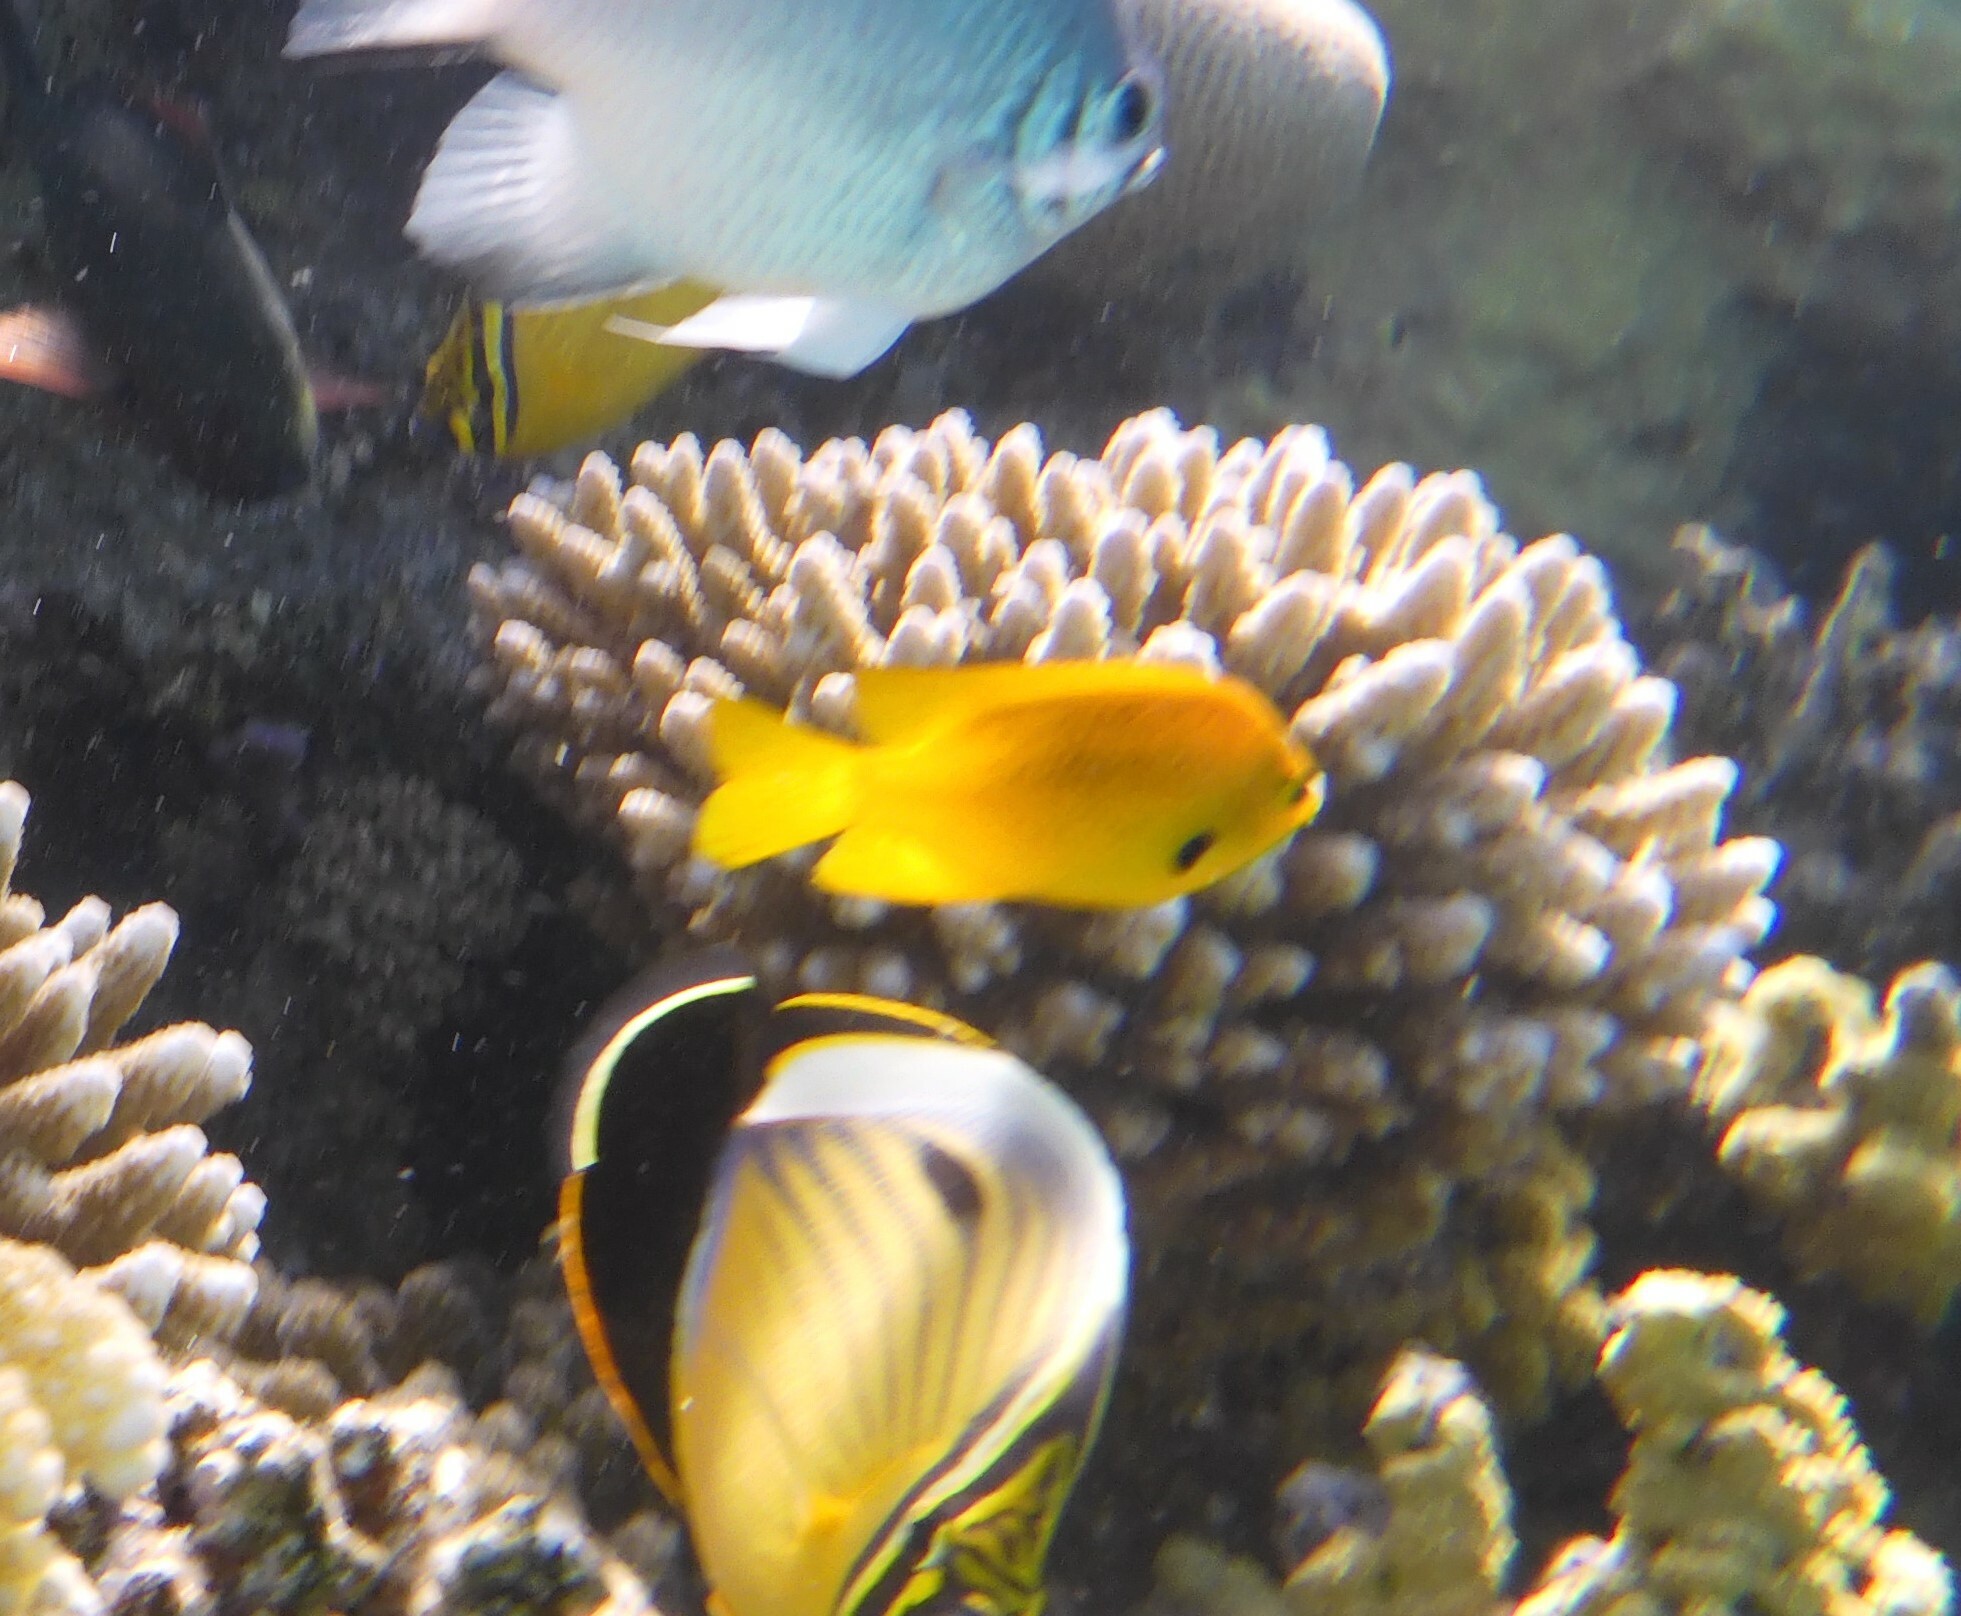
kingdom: Animalia
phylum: Chordata
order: Perciformes
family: Pomacentridae
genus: Pomacentrus
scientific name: Pomacentrus sulfureus
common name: Sulfur damsel
